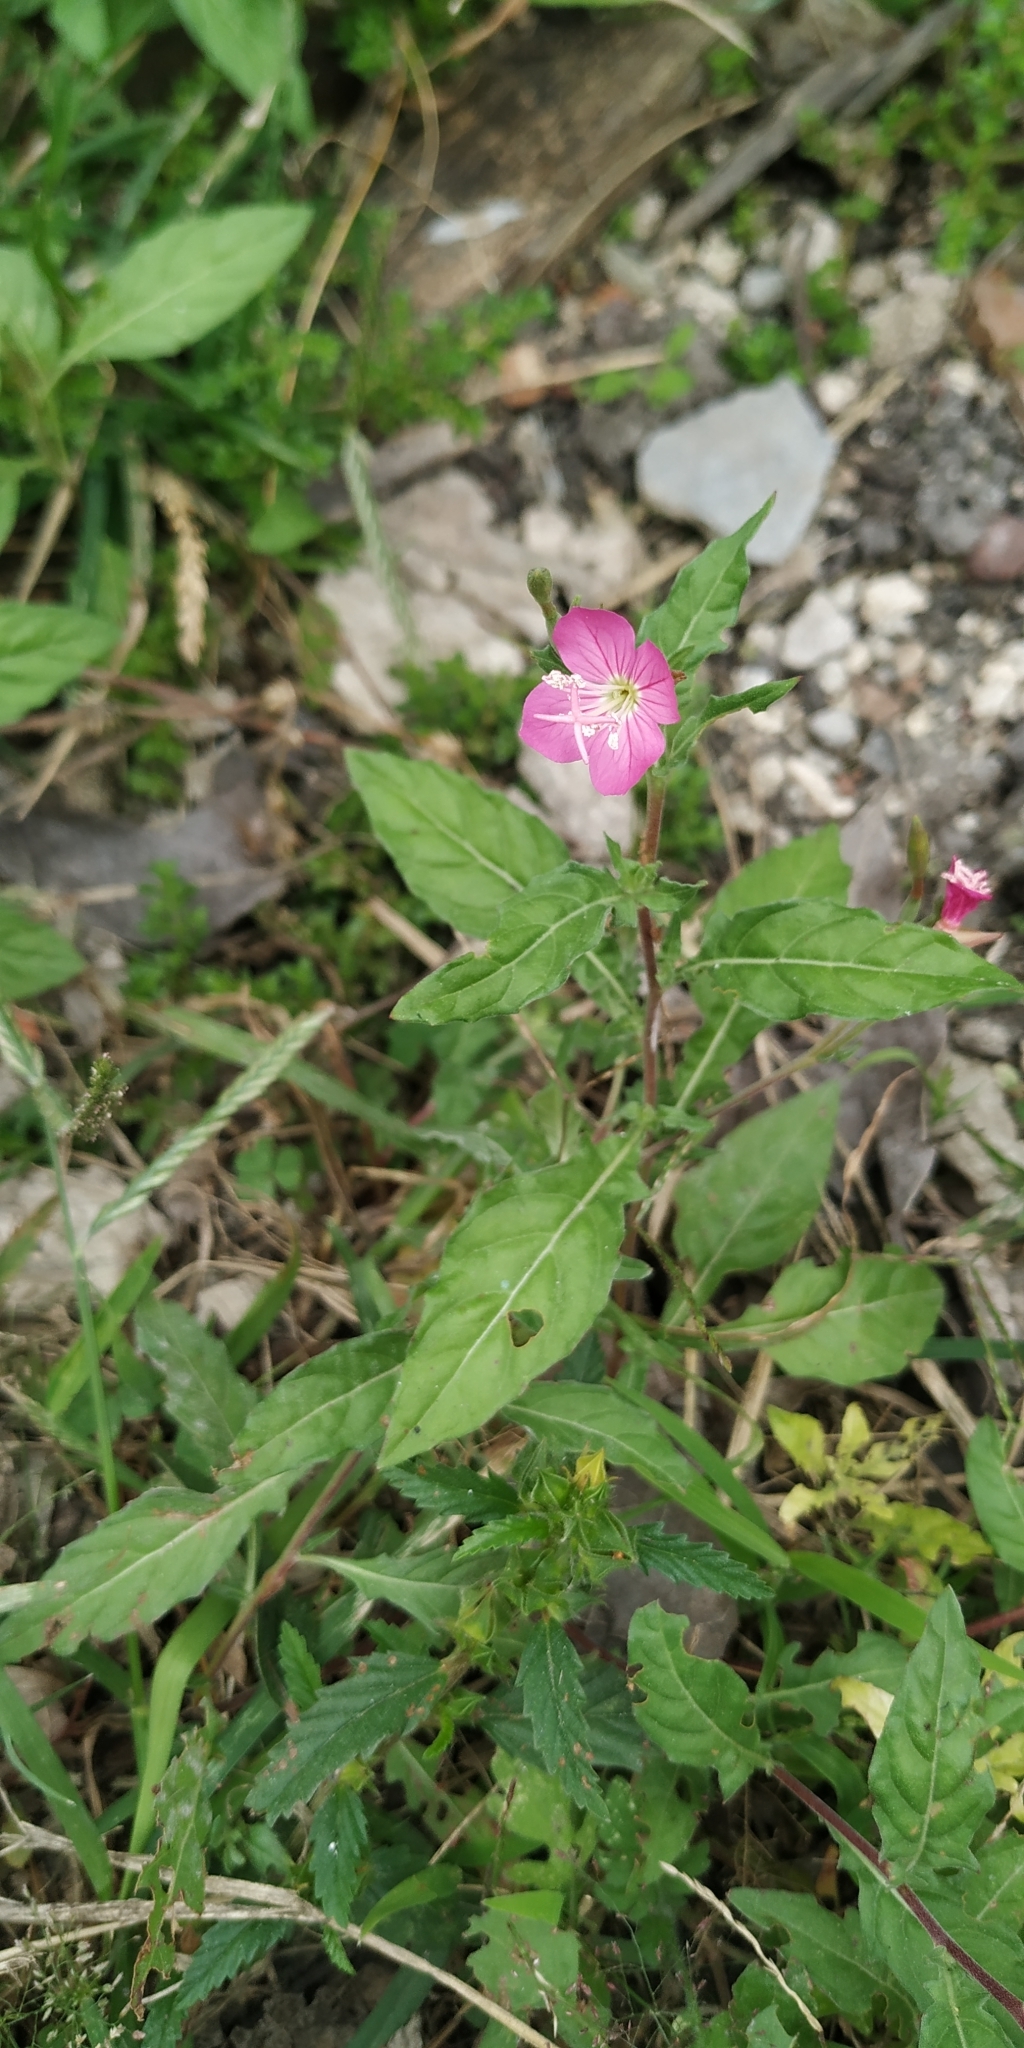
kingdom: Plantae
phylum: Tracheophyta
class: Magnoliopsida
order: Myrtales
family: Onagraceae
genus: Oenothera
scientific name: Oenothera rosea
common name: Rosy evening-primrose
